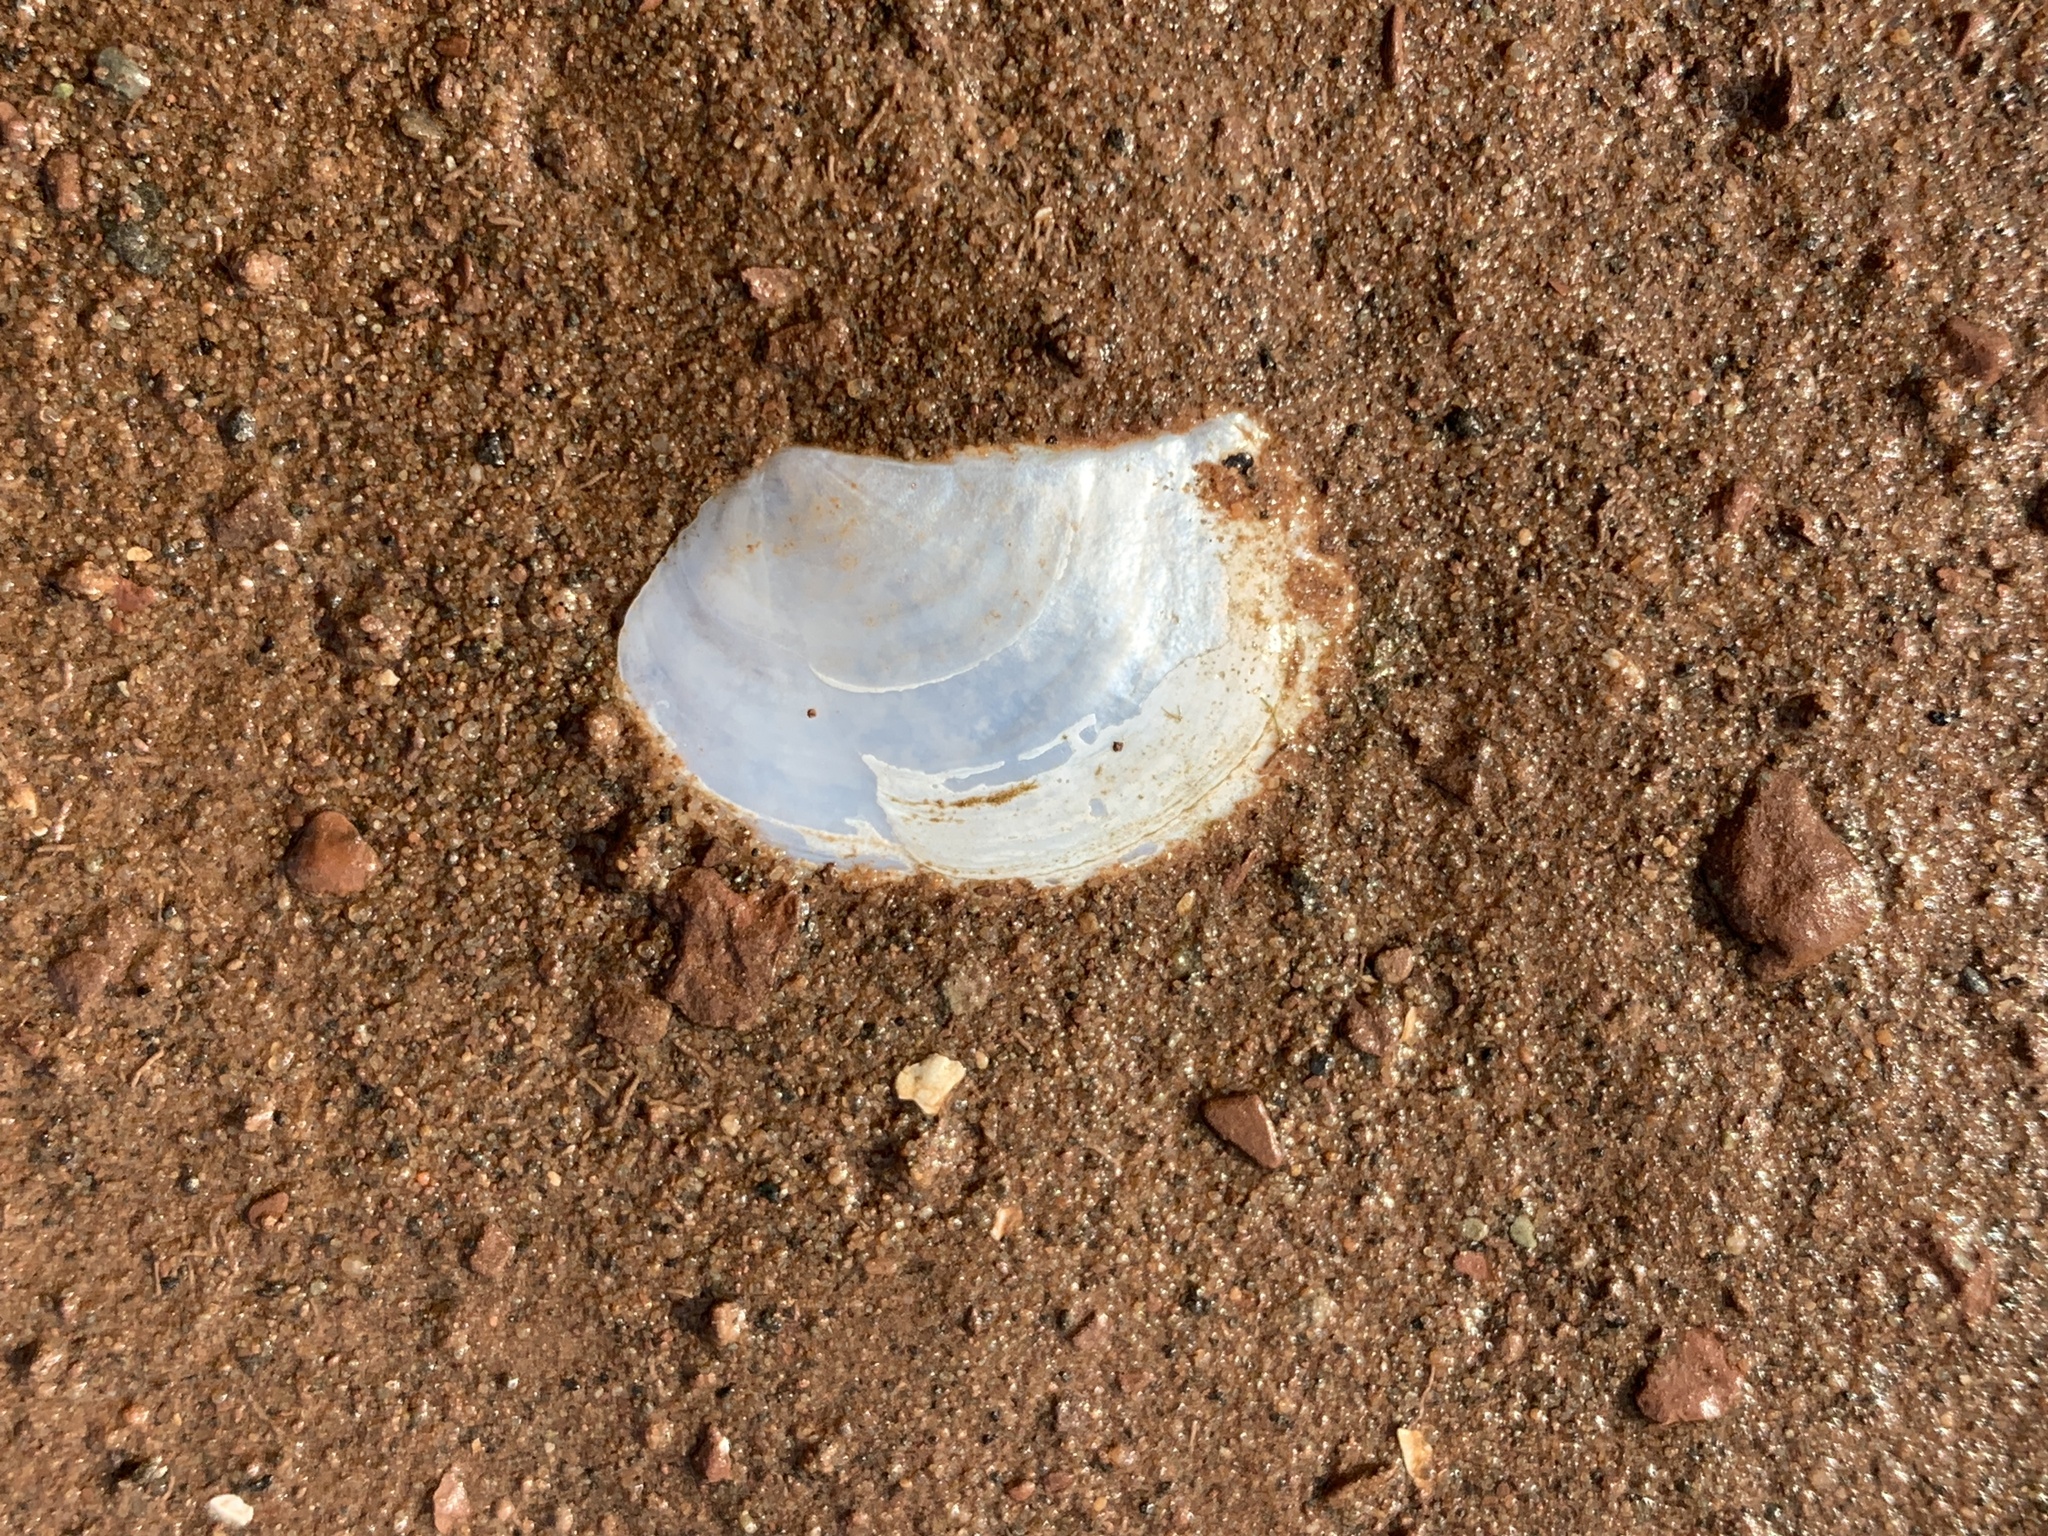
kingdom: Animalia
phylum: Mollusca
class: Bivalvia
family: Pandoridae
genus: Pandora
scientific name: Pandora gouldiana
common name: Rounded pandora
